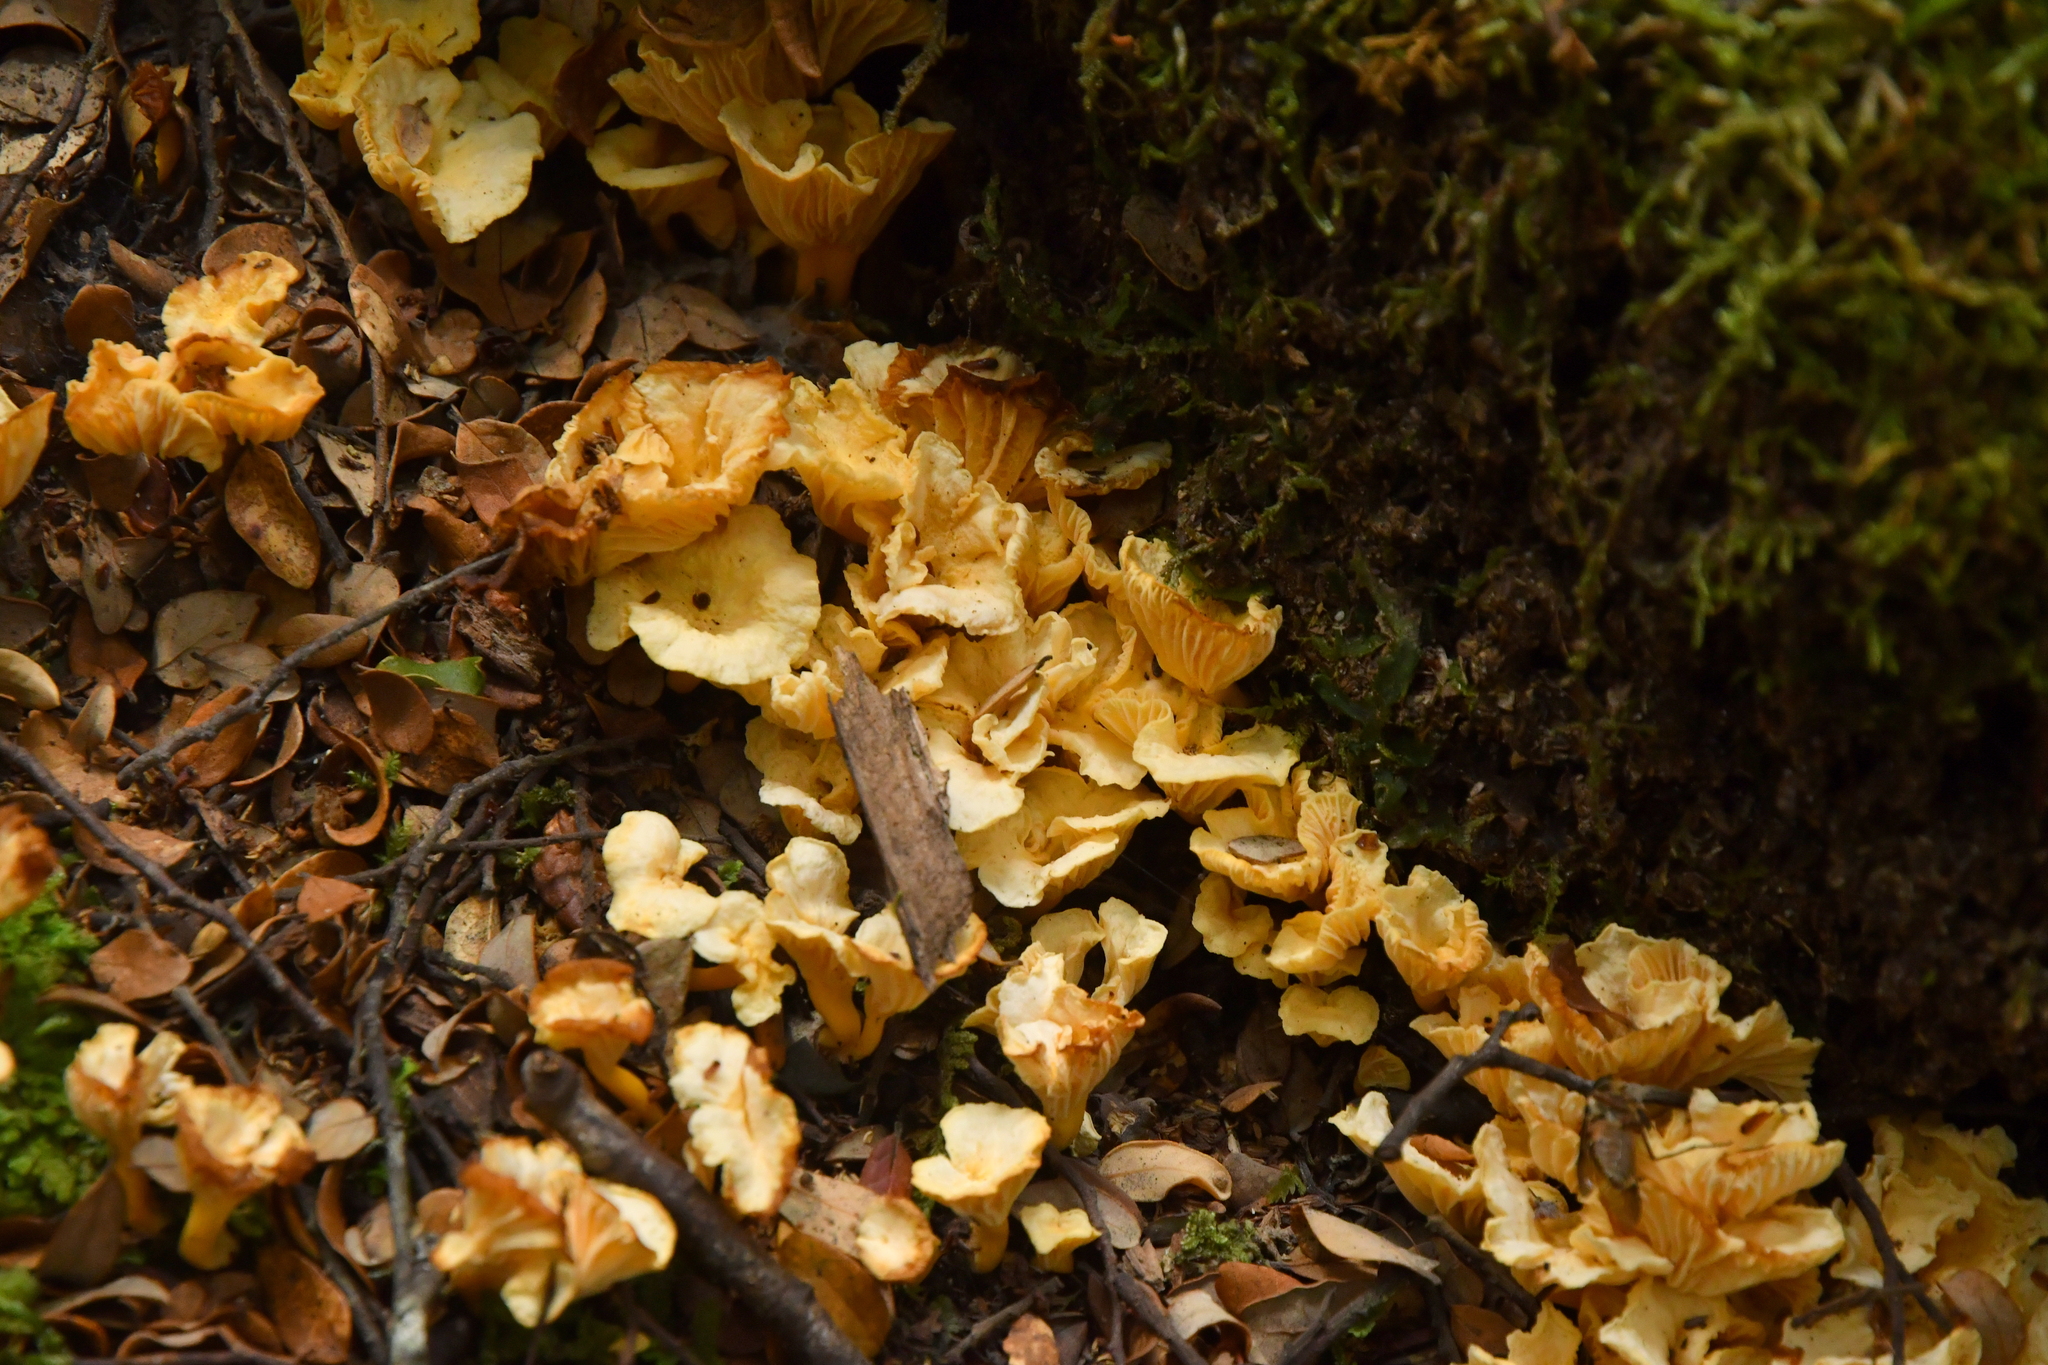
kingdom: Fungi
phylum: Basidiomycota
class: Agaricomycetes
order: Cantharellales
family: Hydnaceae
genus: Cantharellus
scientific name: Cantharellus wellingtonensis
